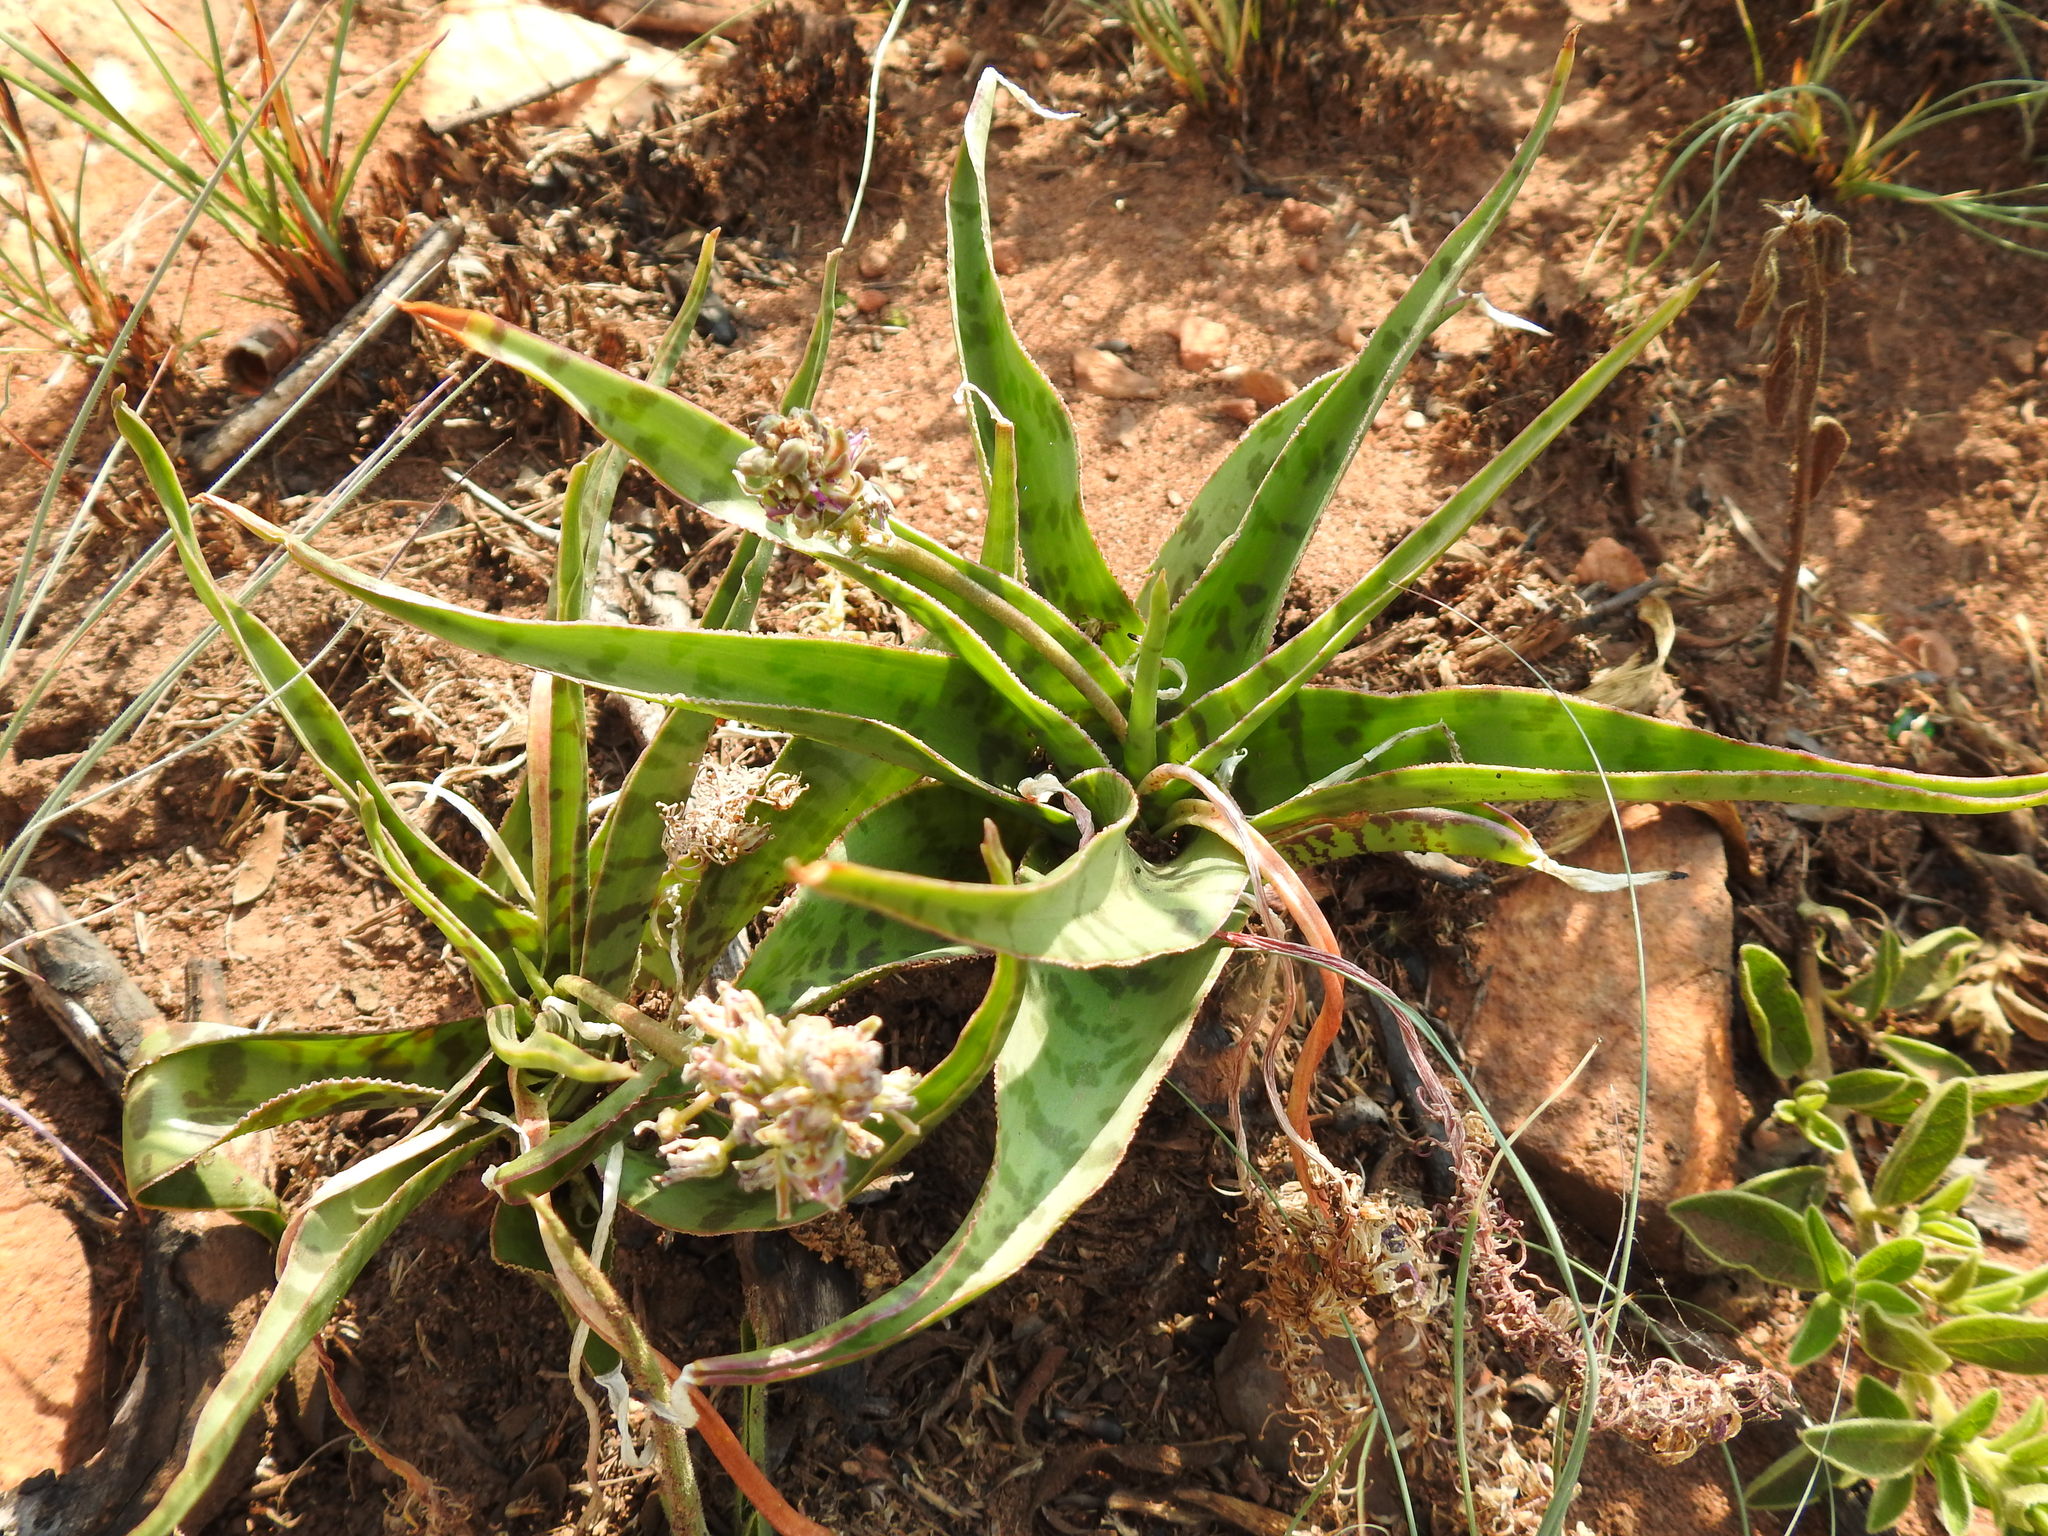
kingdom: Plantae
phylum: Tracheophyta
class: Liliopsida
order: Asparagales
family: Asparagaceae
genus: Ledebouria
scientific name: Ledebouria luteola
